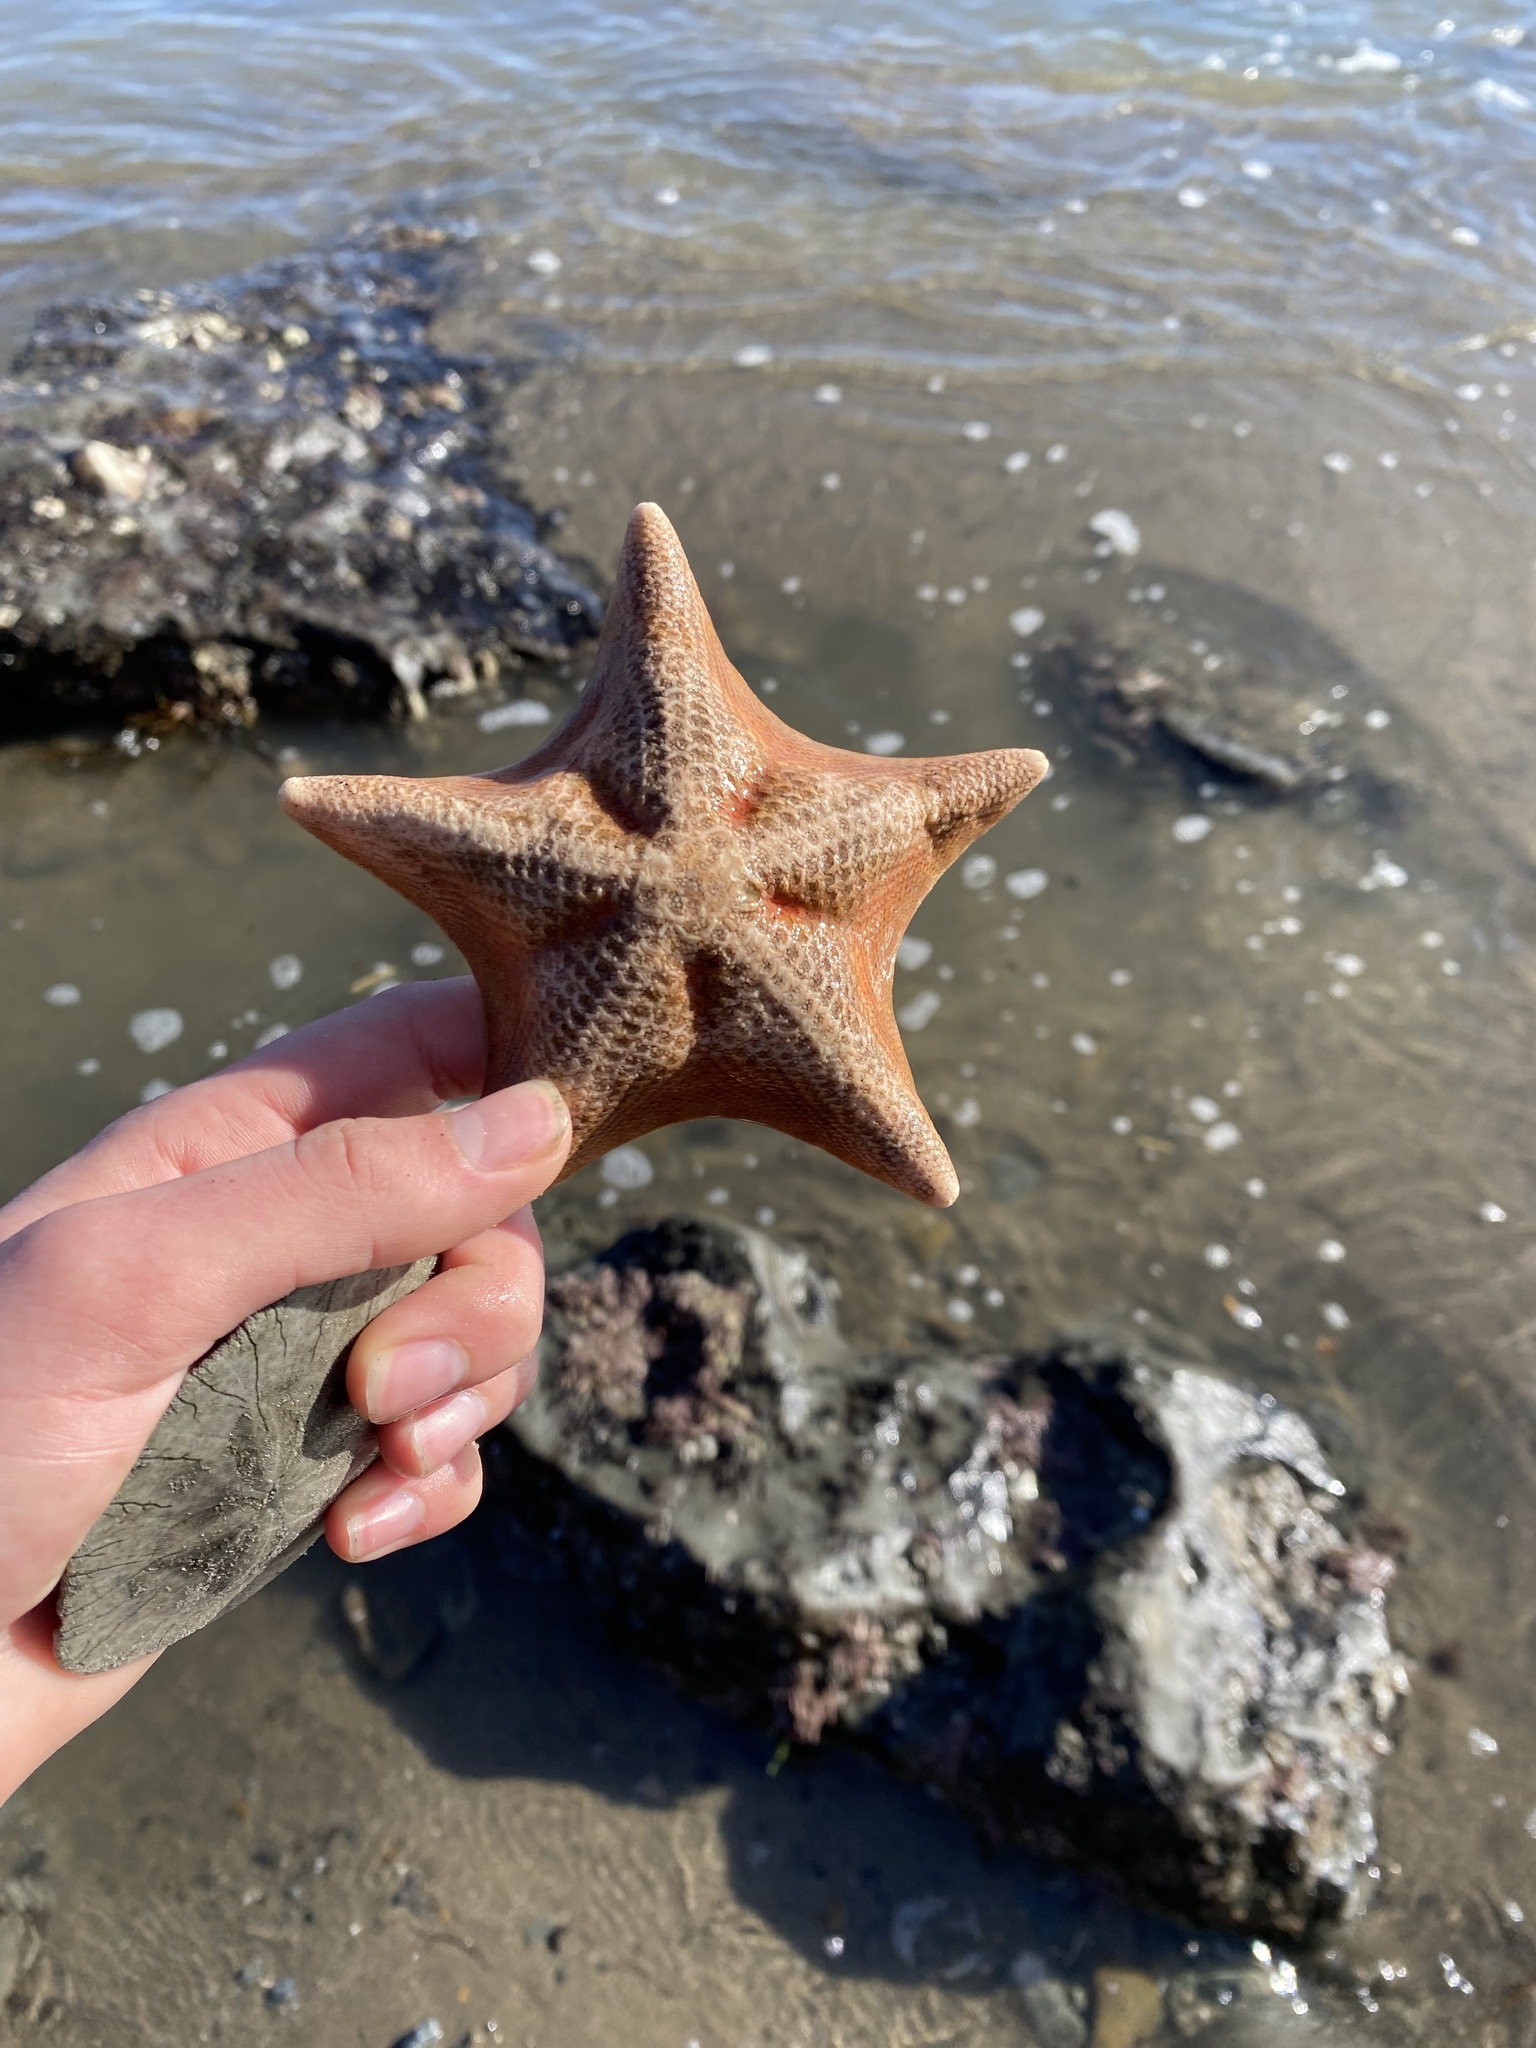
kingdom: Animalia
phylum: Echinodermata
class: Asteroidea
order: Valvatida
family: Asterinidae
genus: Patiria
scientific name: Patiria miniata
